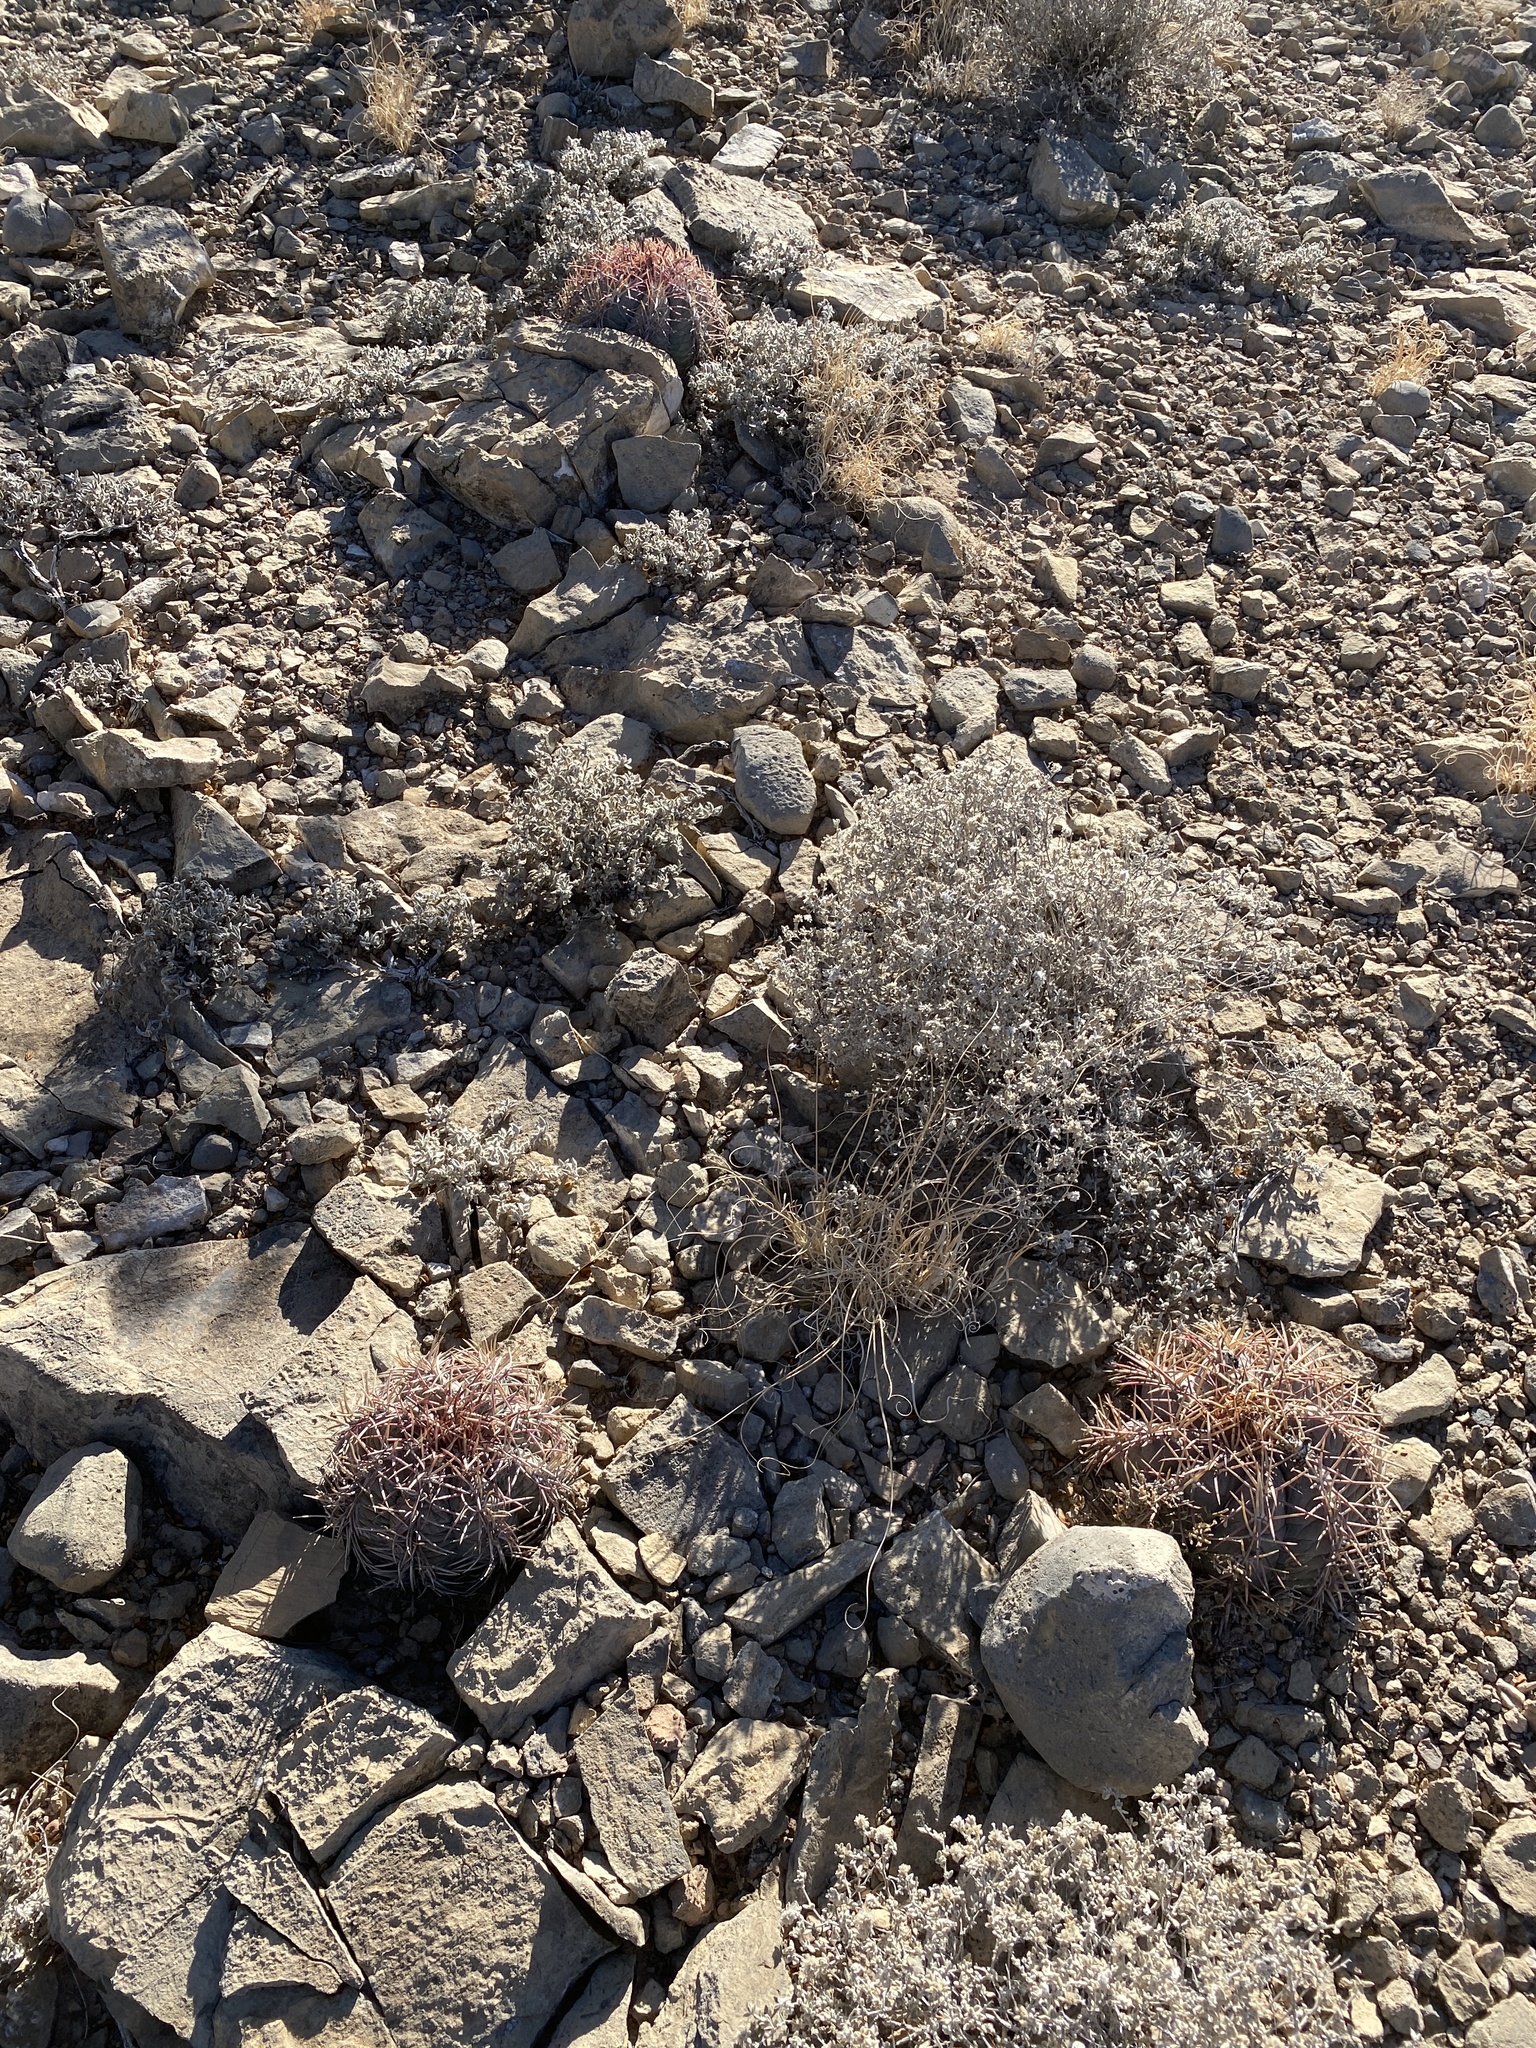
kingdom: Plantae
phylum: Tracheophyta
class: Magnoliopsida
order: Caryophyllales
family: Cactaceae
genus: Echinocactus
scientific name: Echinocactus horizonthalonius
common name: Devilshead
